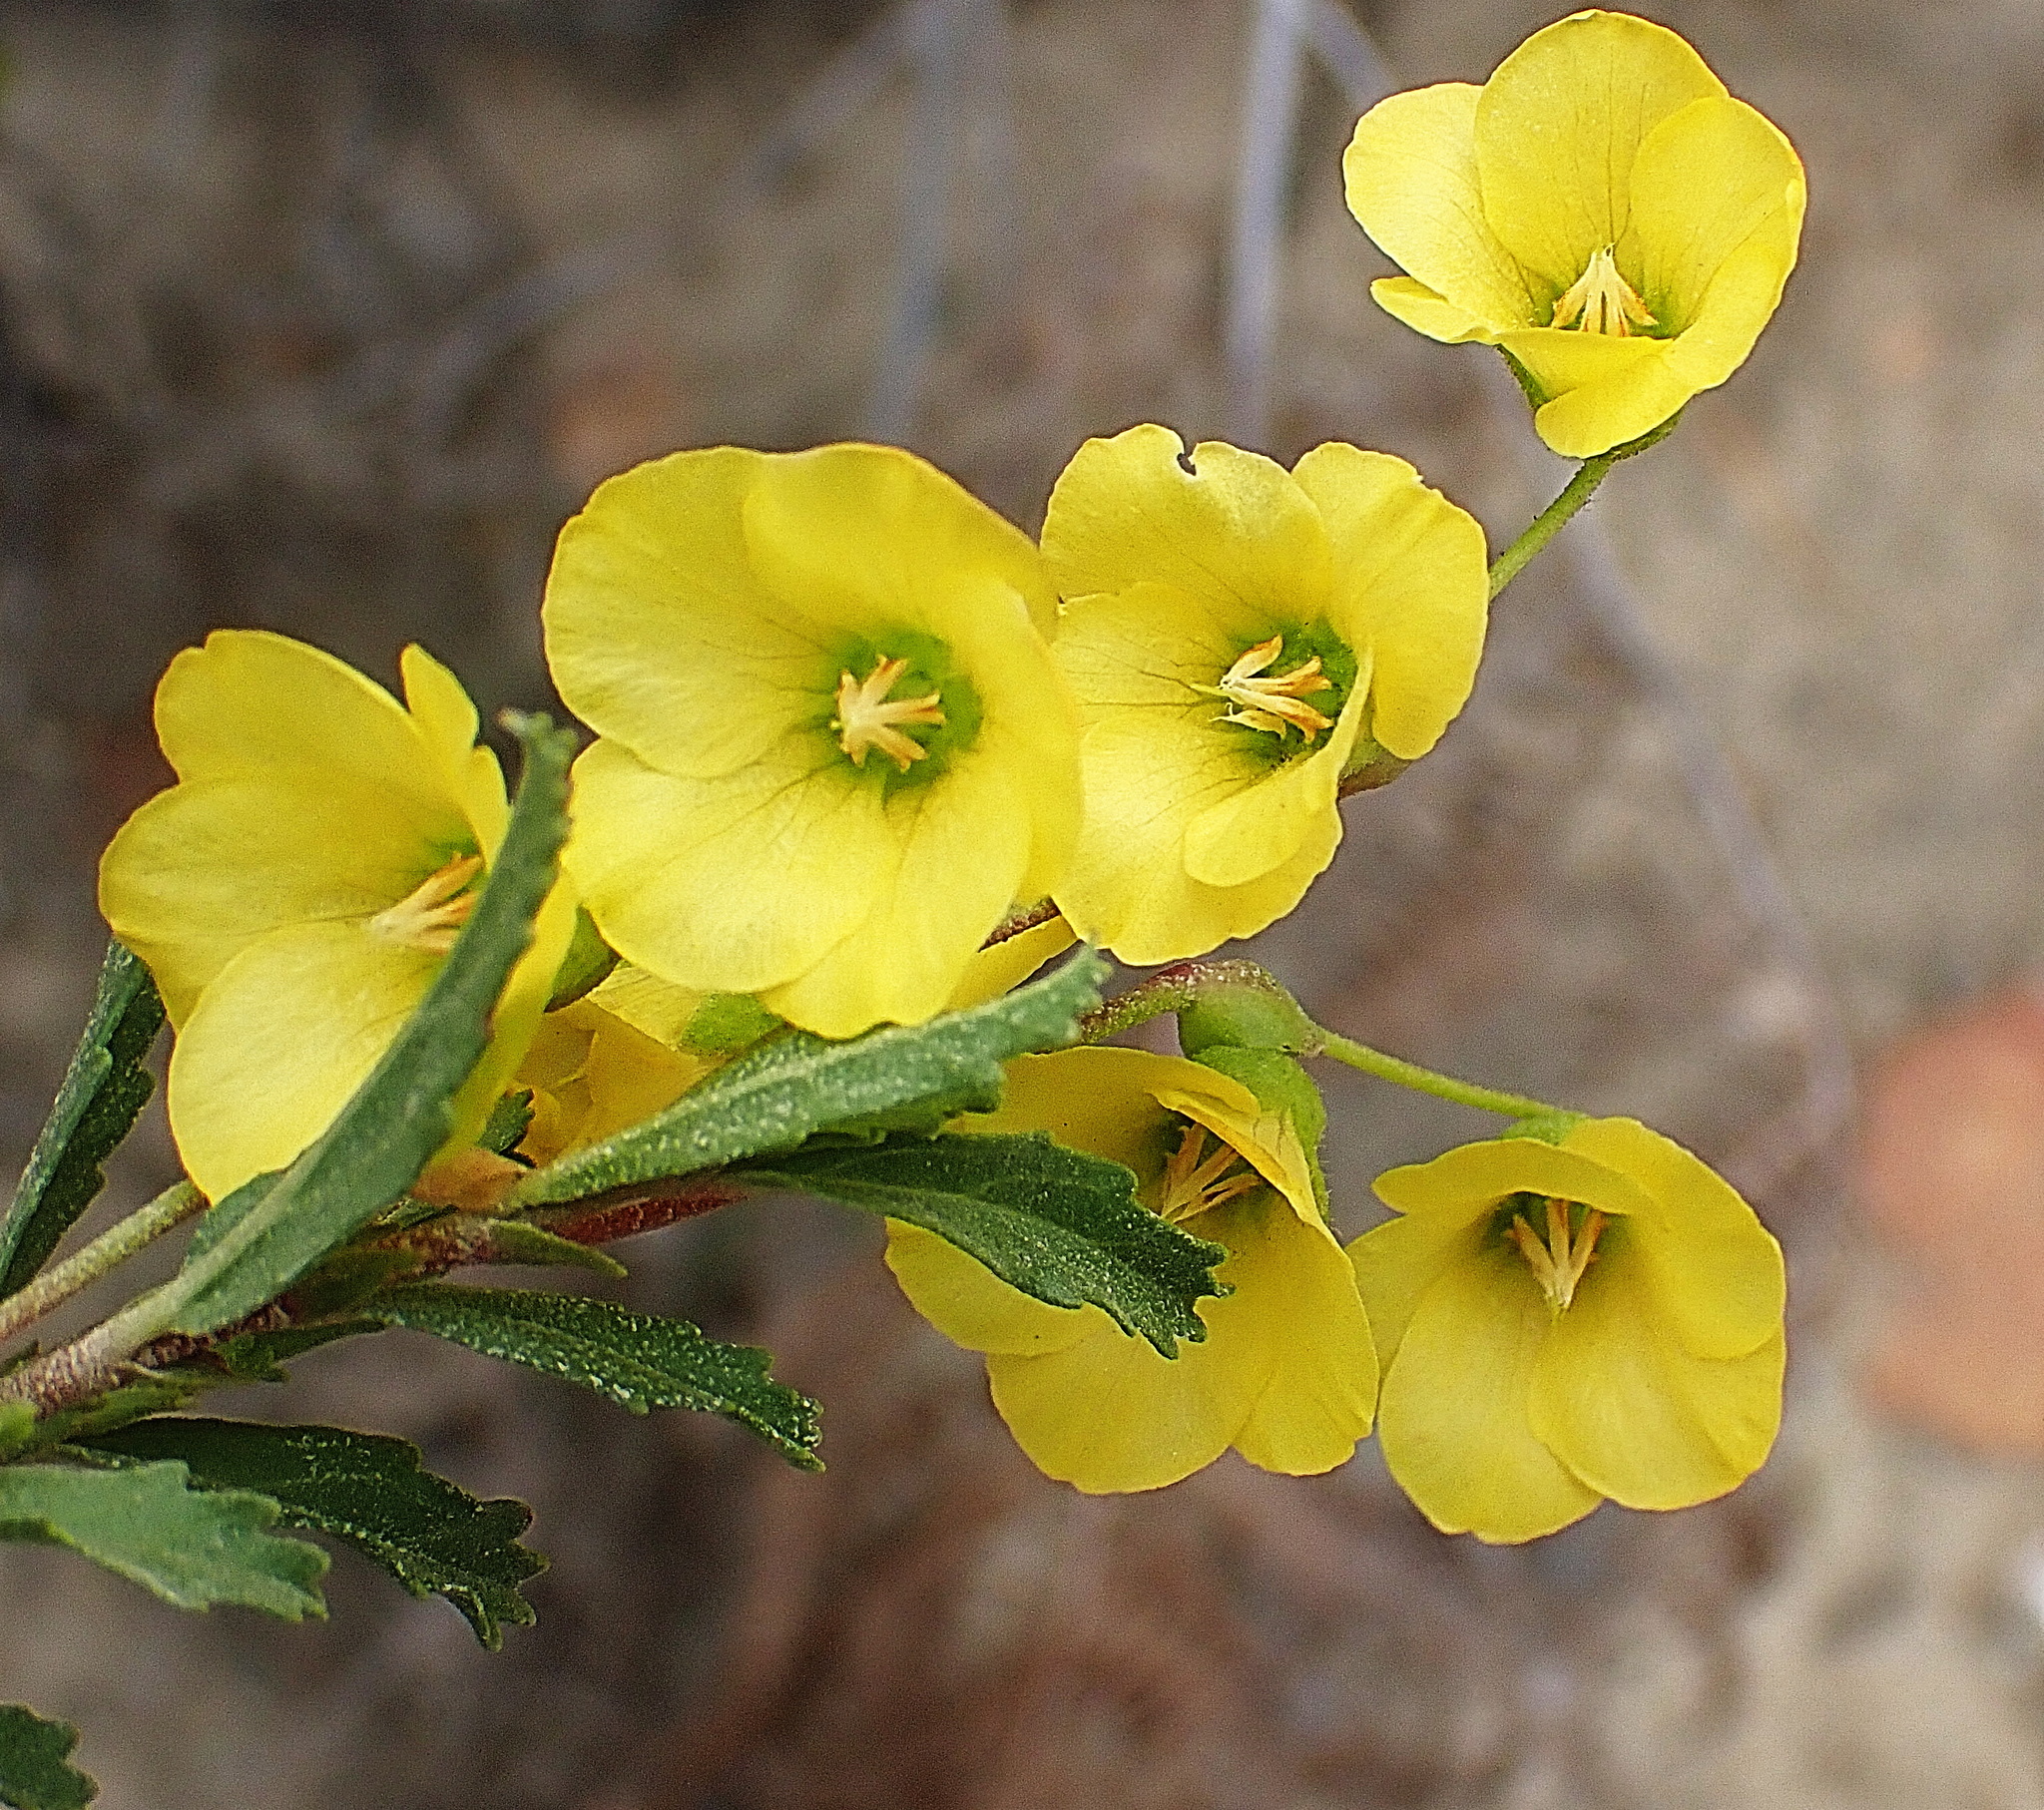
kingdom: Plantae
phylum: Tracheophyta
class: Magnoliopsida
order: Malvales
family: Malvaceae
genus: Hermannia
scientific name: Hermannia saccifera
